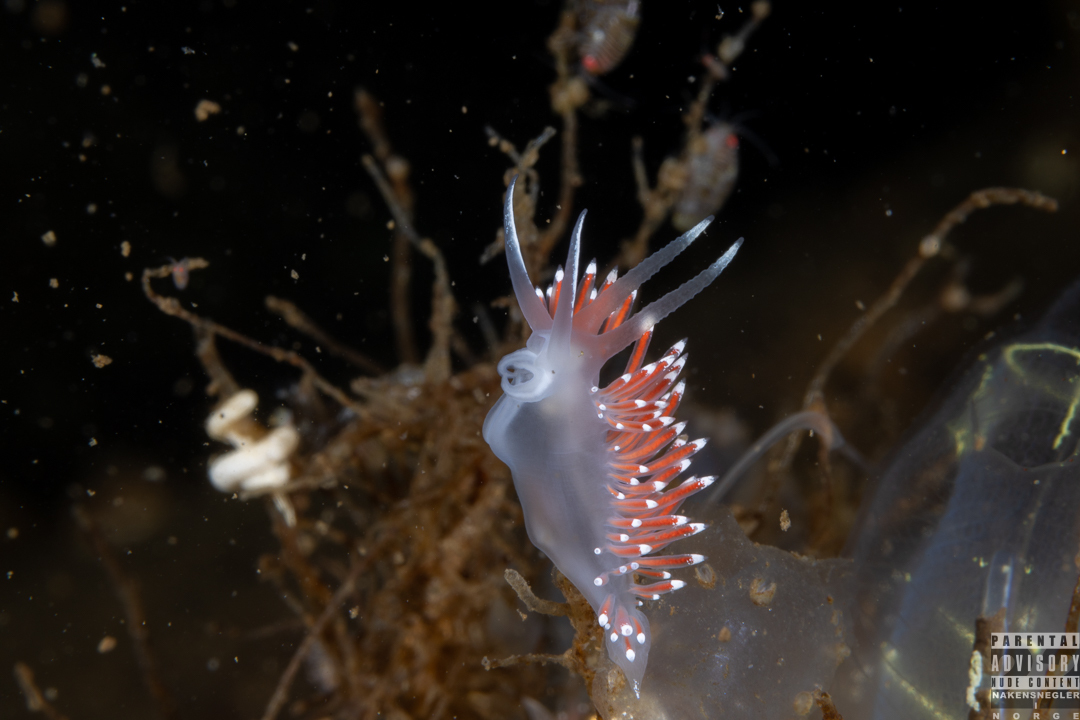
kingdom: Animalia
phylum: Mollusca
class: Gastropoda
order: Nudibranchia
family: Coryphellidae
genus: Coryphella
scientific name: Coryphella verrucosa
